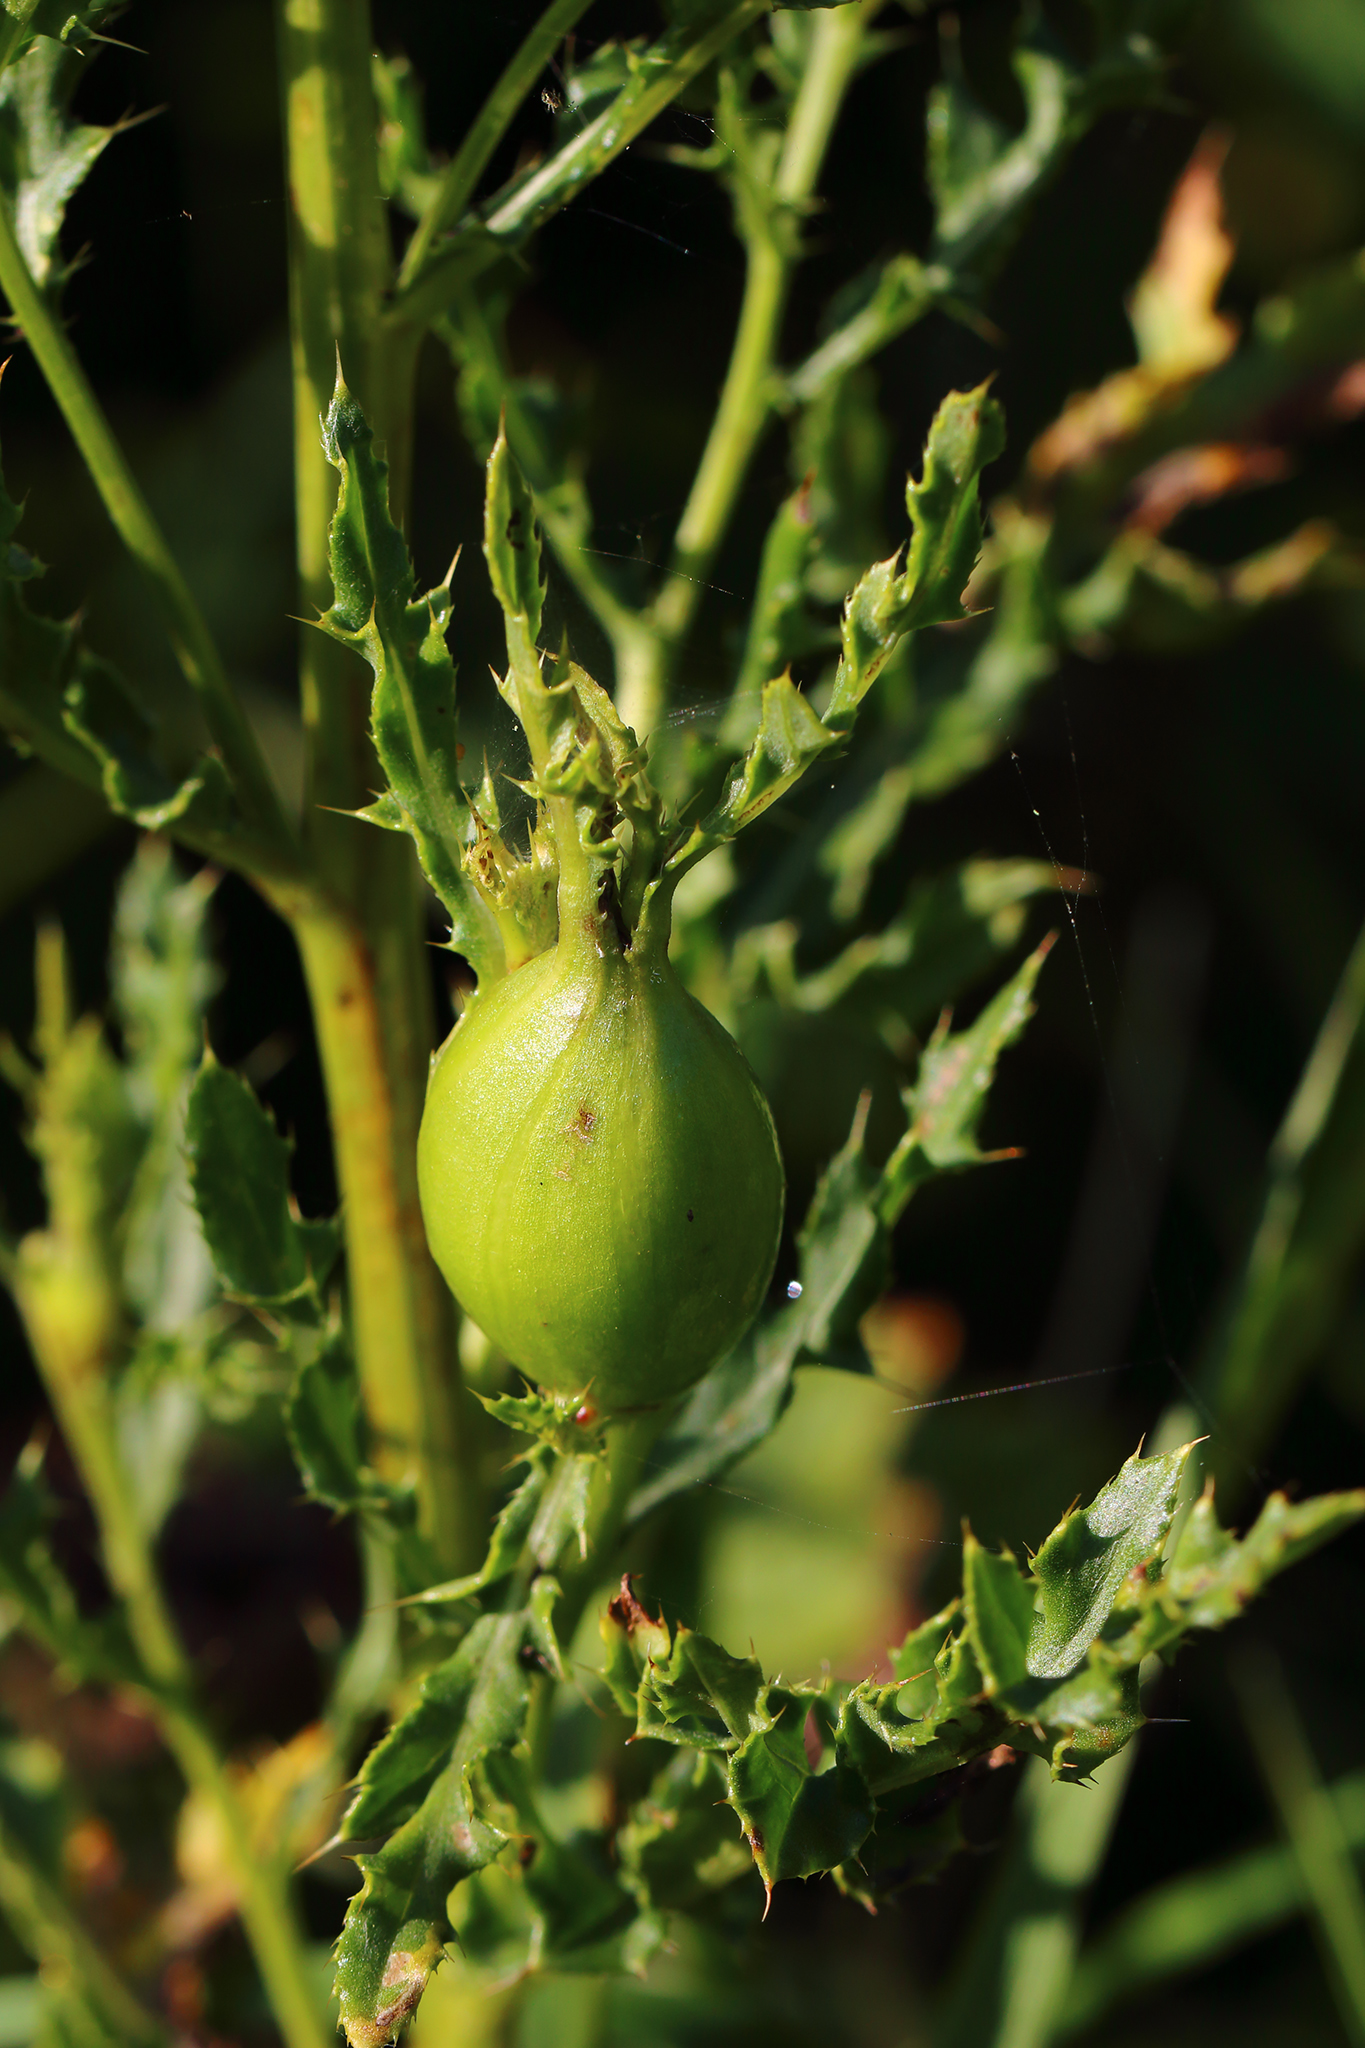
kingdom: Animalia
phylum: Arthropoda
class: Insecta
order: Diptera
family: Tephritidae
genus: Urophora
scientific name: Urophora cardui
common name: Fruit fly
